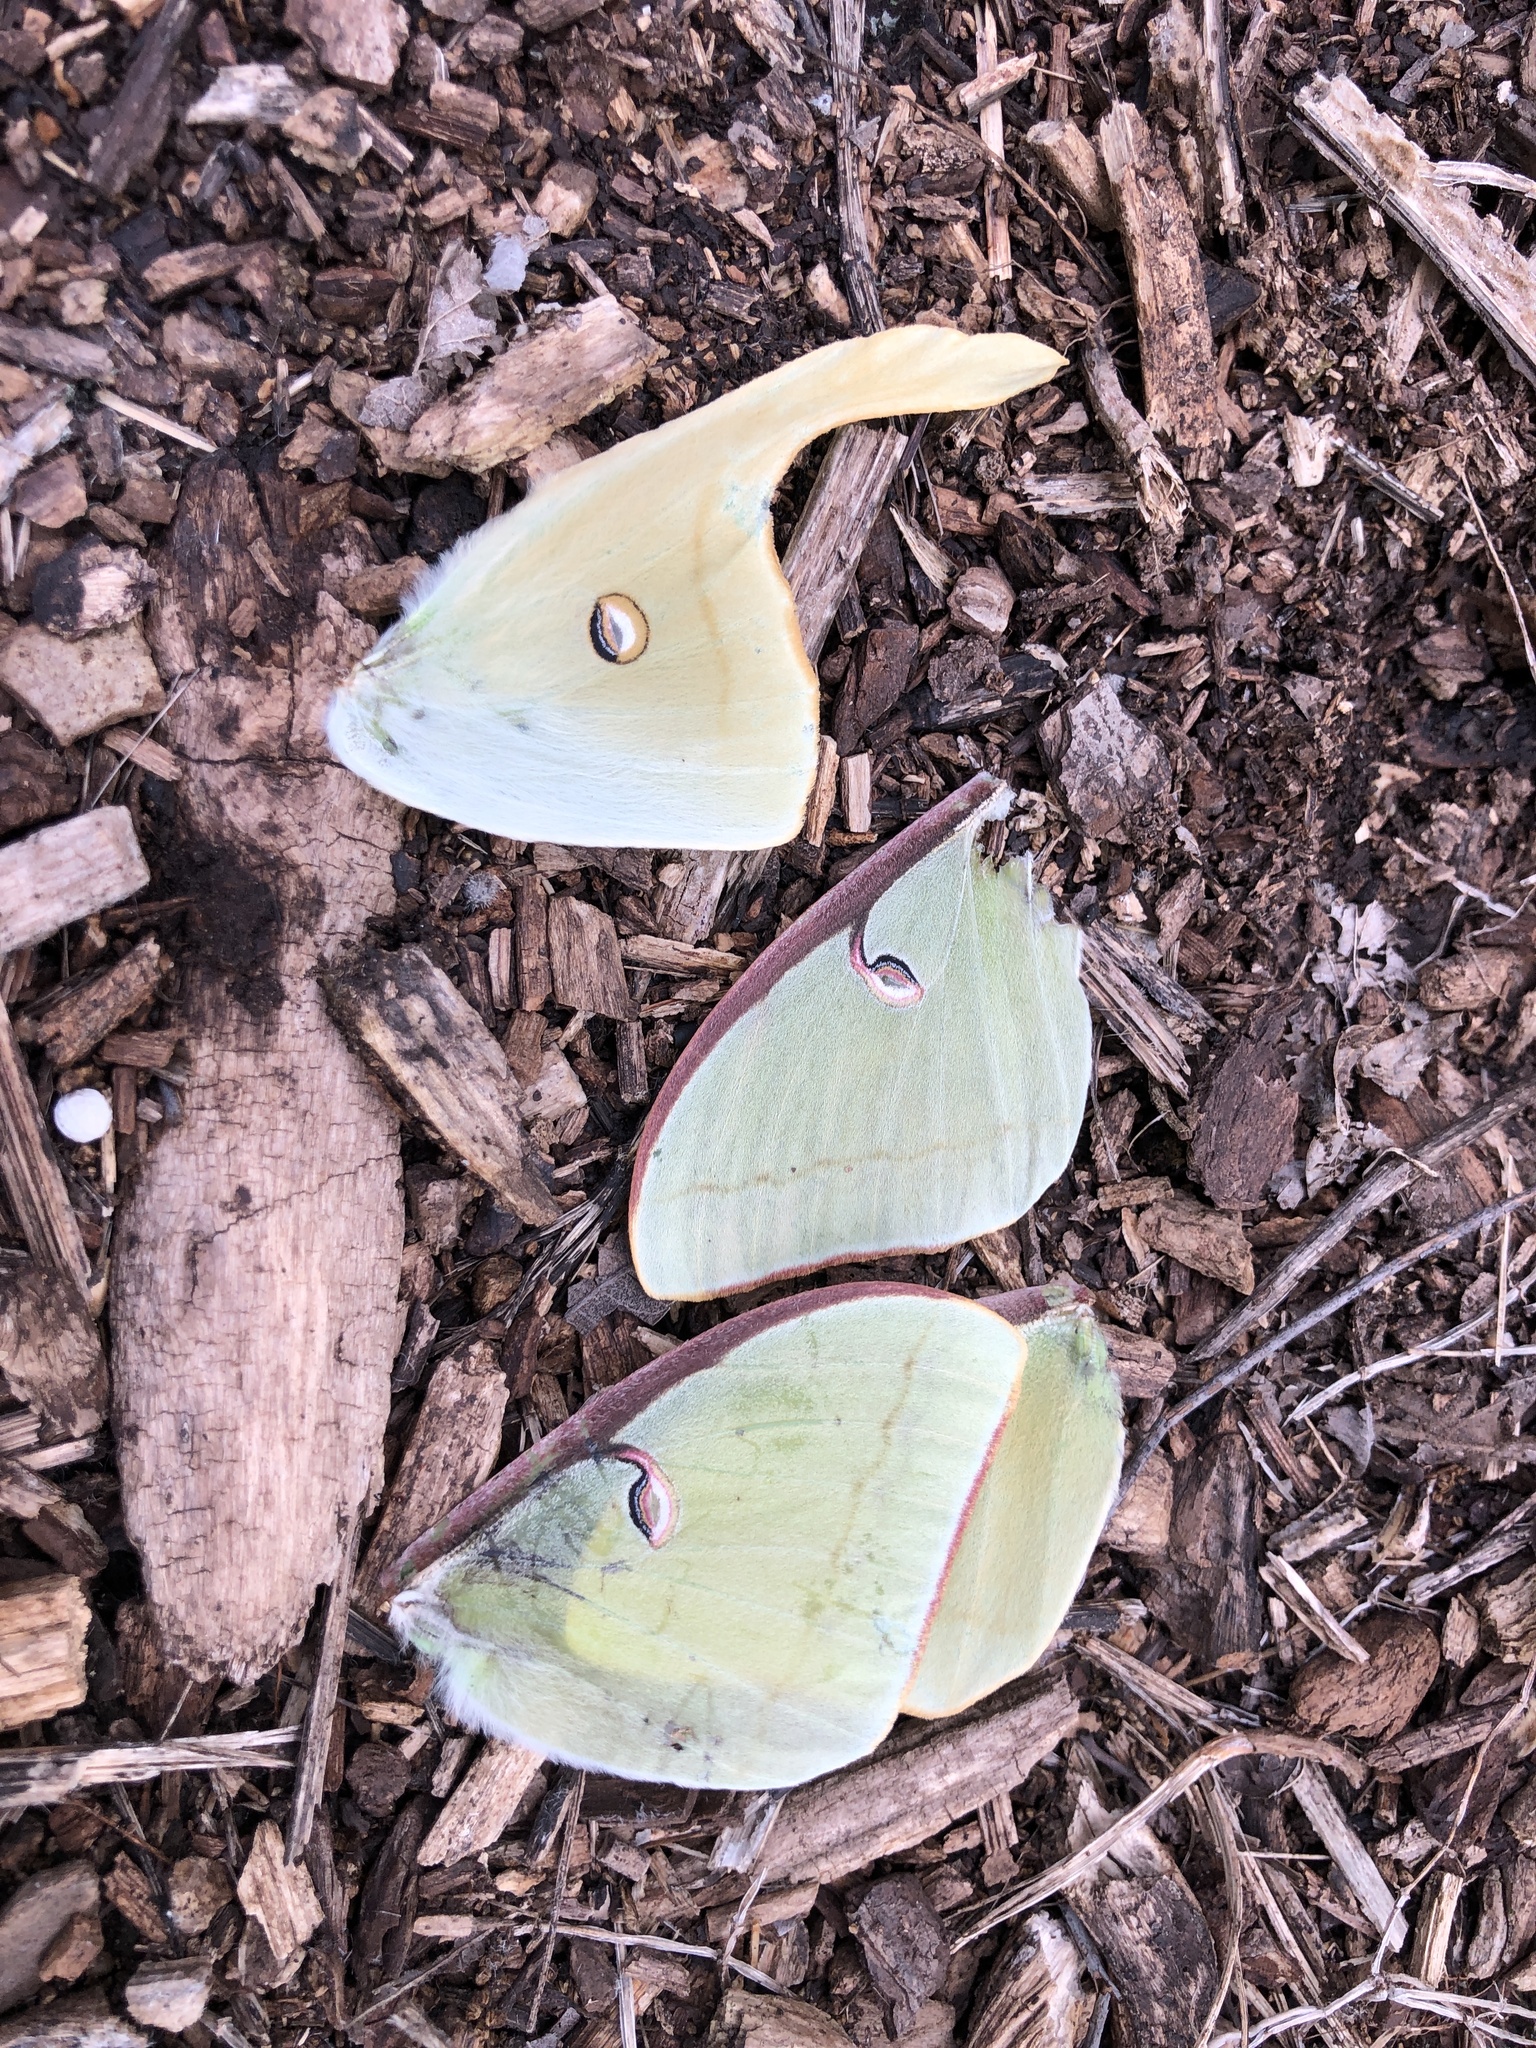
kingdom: Animalia
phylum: Arthropoda
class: Insecta
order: Lepidoptera
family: Saturniidae
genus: Actias
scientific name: Actias luna
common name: Luna moth
